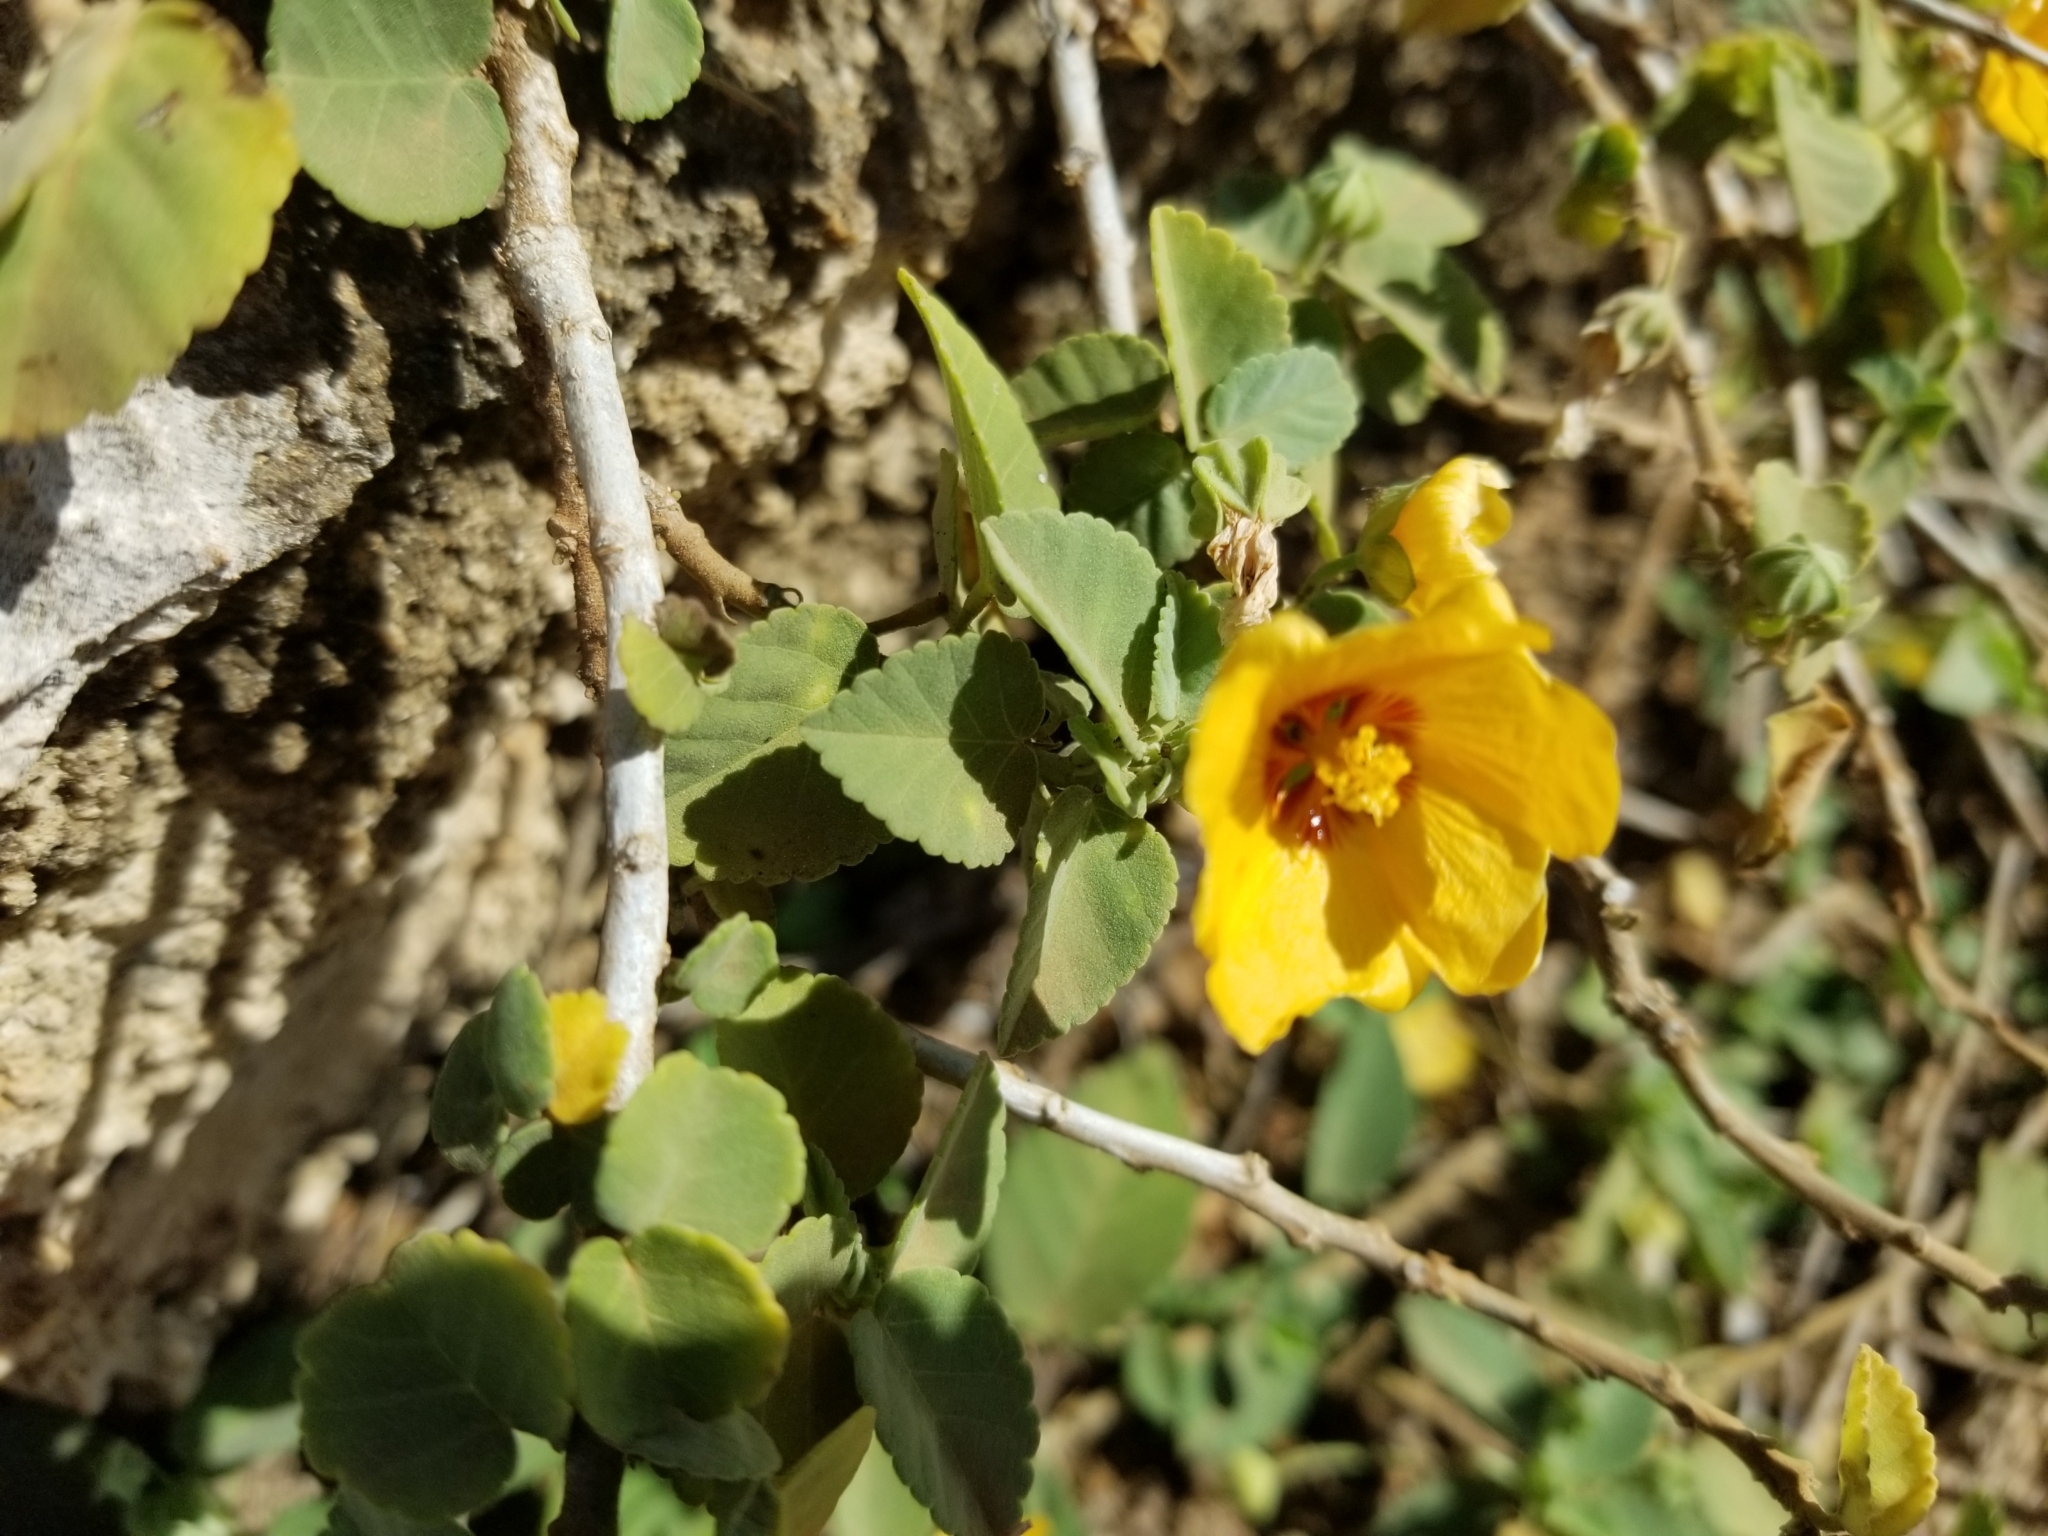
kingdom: Plantae
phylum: Tracheophyta
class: Magnoliopsida
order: Malvales
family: Malvaceae
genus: Sida
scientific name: Sida fallax
